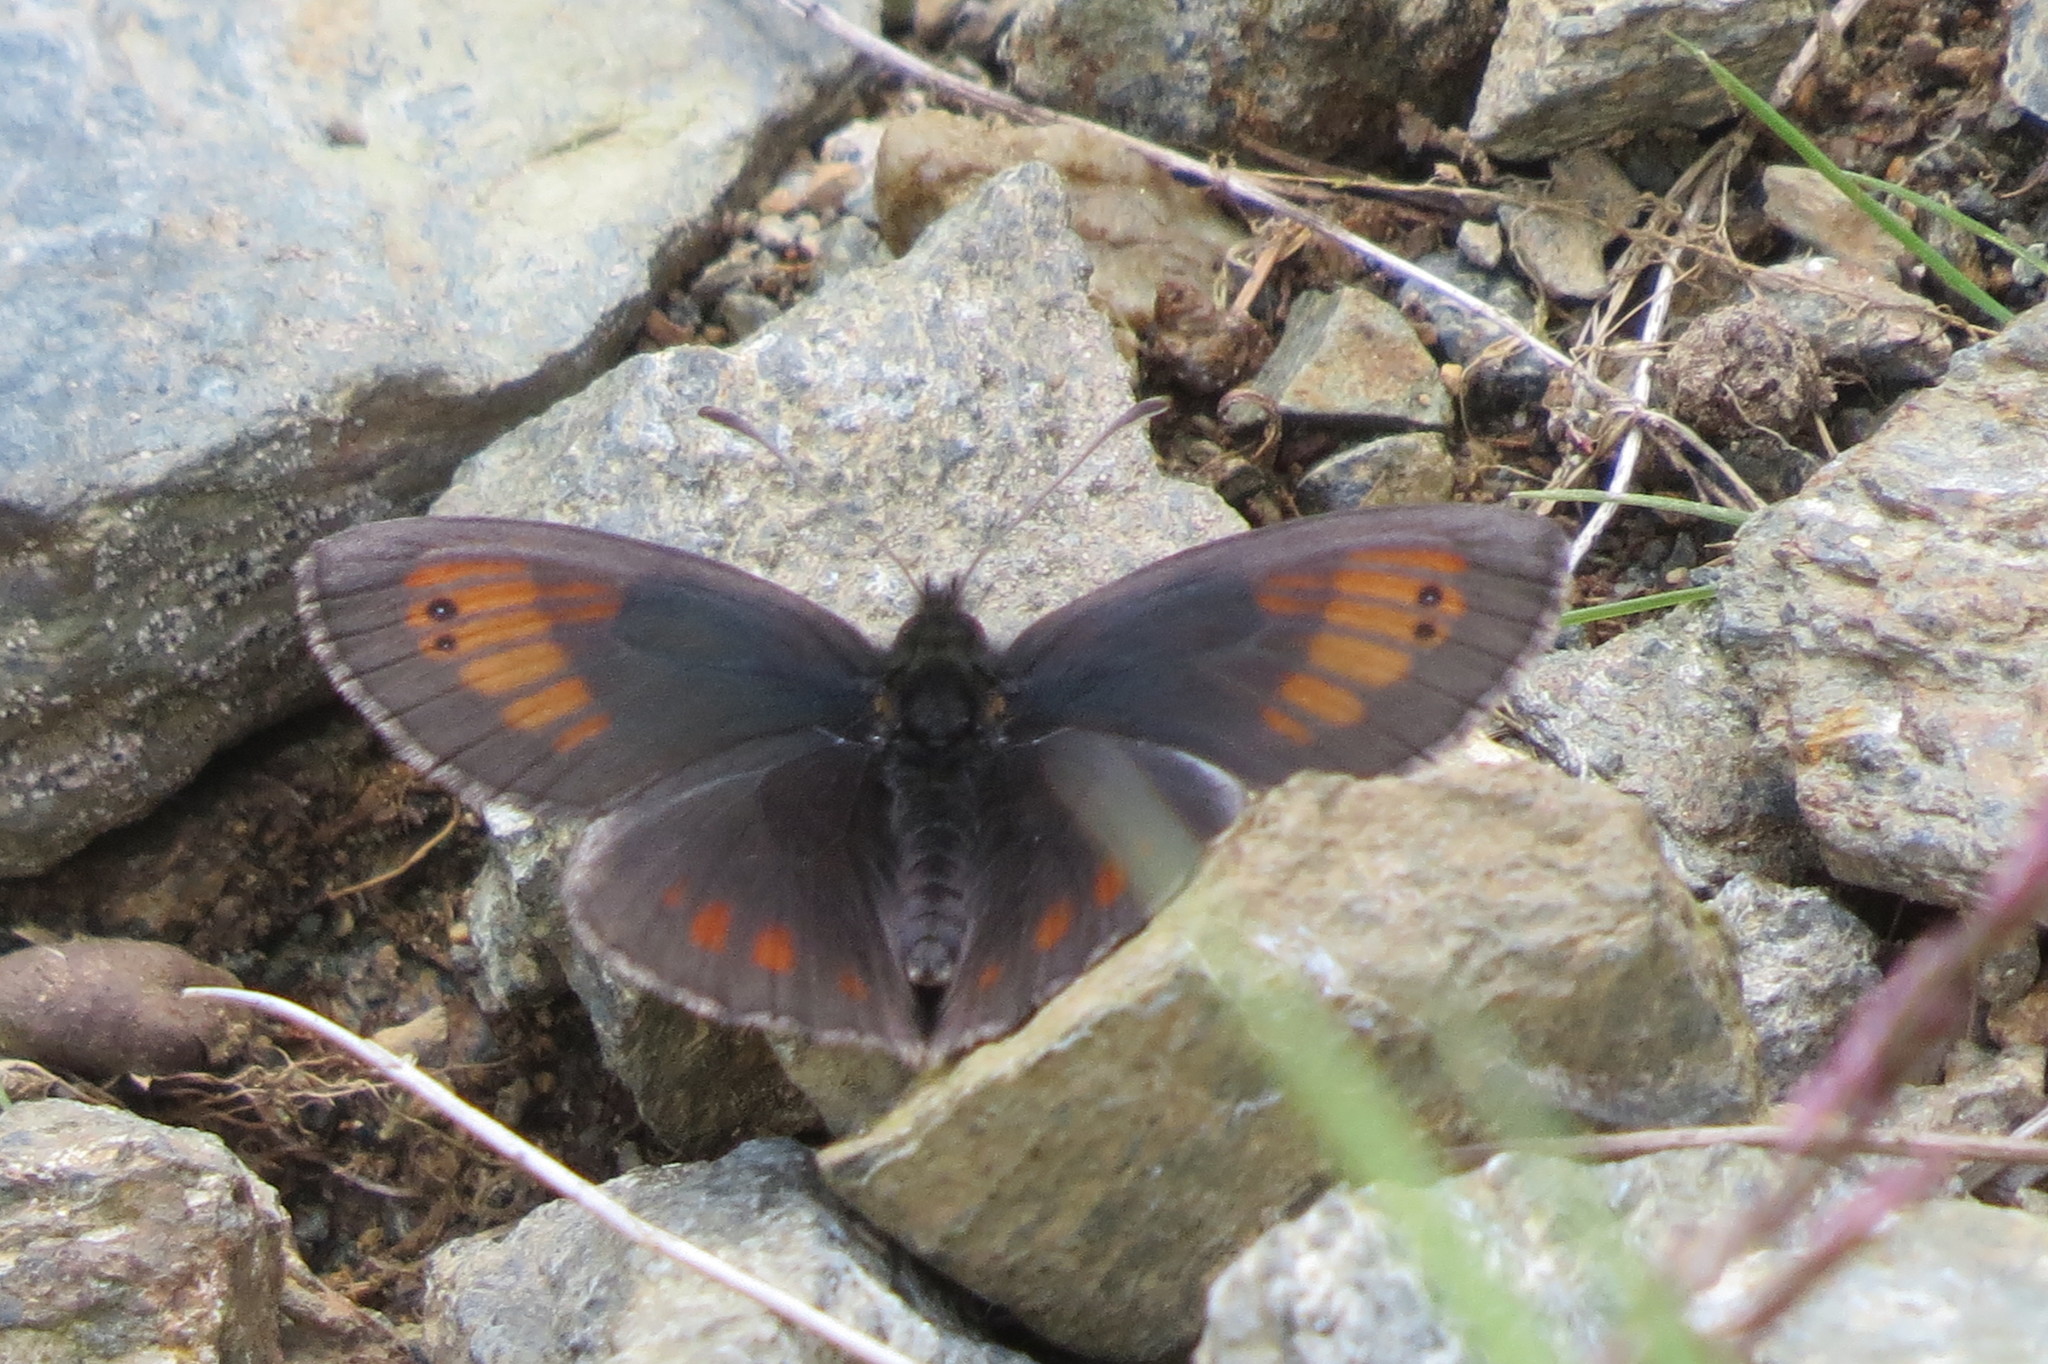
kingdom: Animalia
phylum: Arthropoda
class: Insecta
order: Lepidoptera
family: Nymphalidae
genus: Erebia
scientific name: Erebia tyndarus
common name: Swiss brassy ringlet
